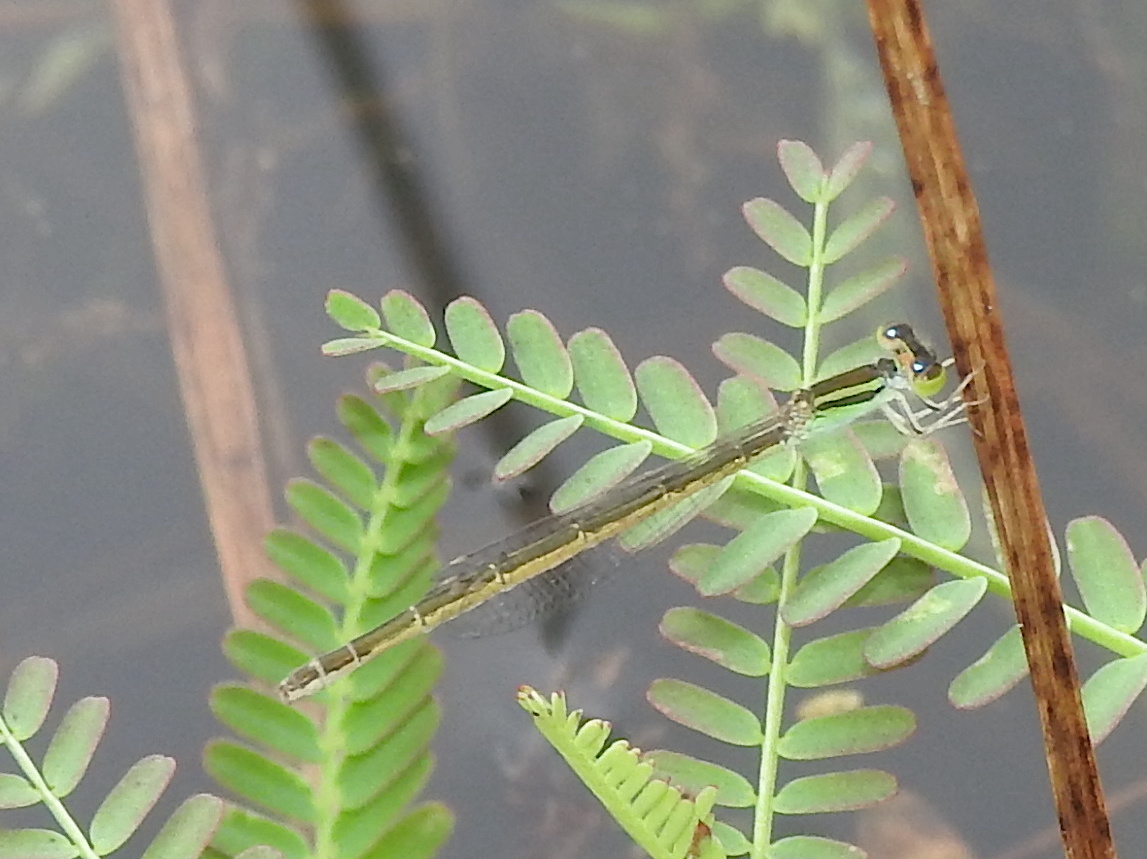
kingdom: Animalia
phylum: Arthropoda
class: Insecta
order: Odonata
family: Coenagrionidae
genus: Ischnura
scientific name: Ischnura rubilio
